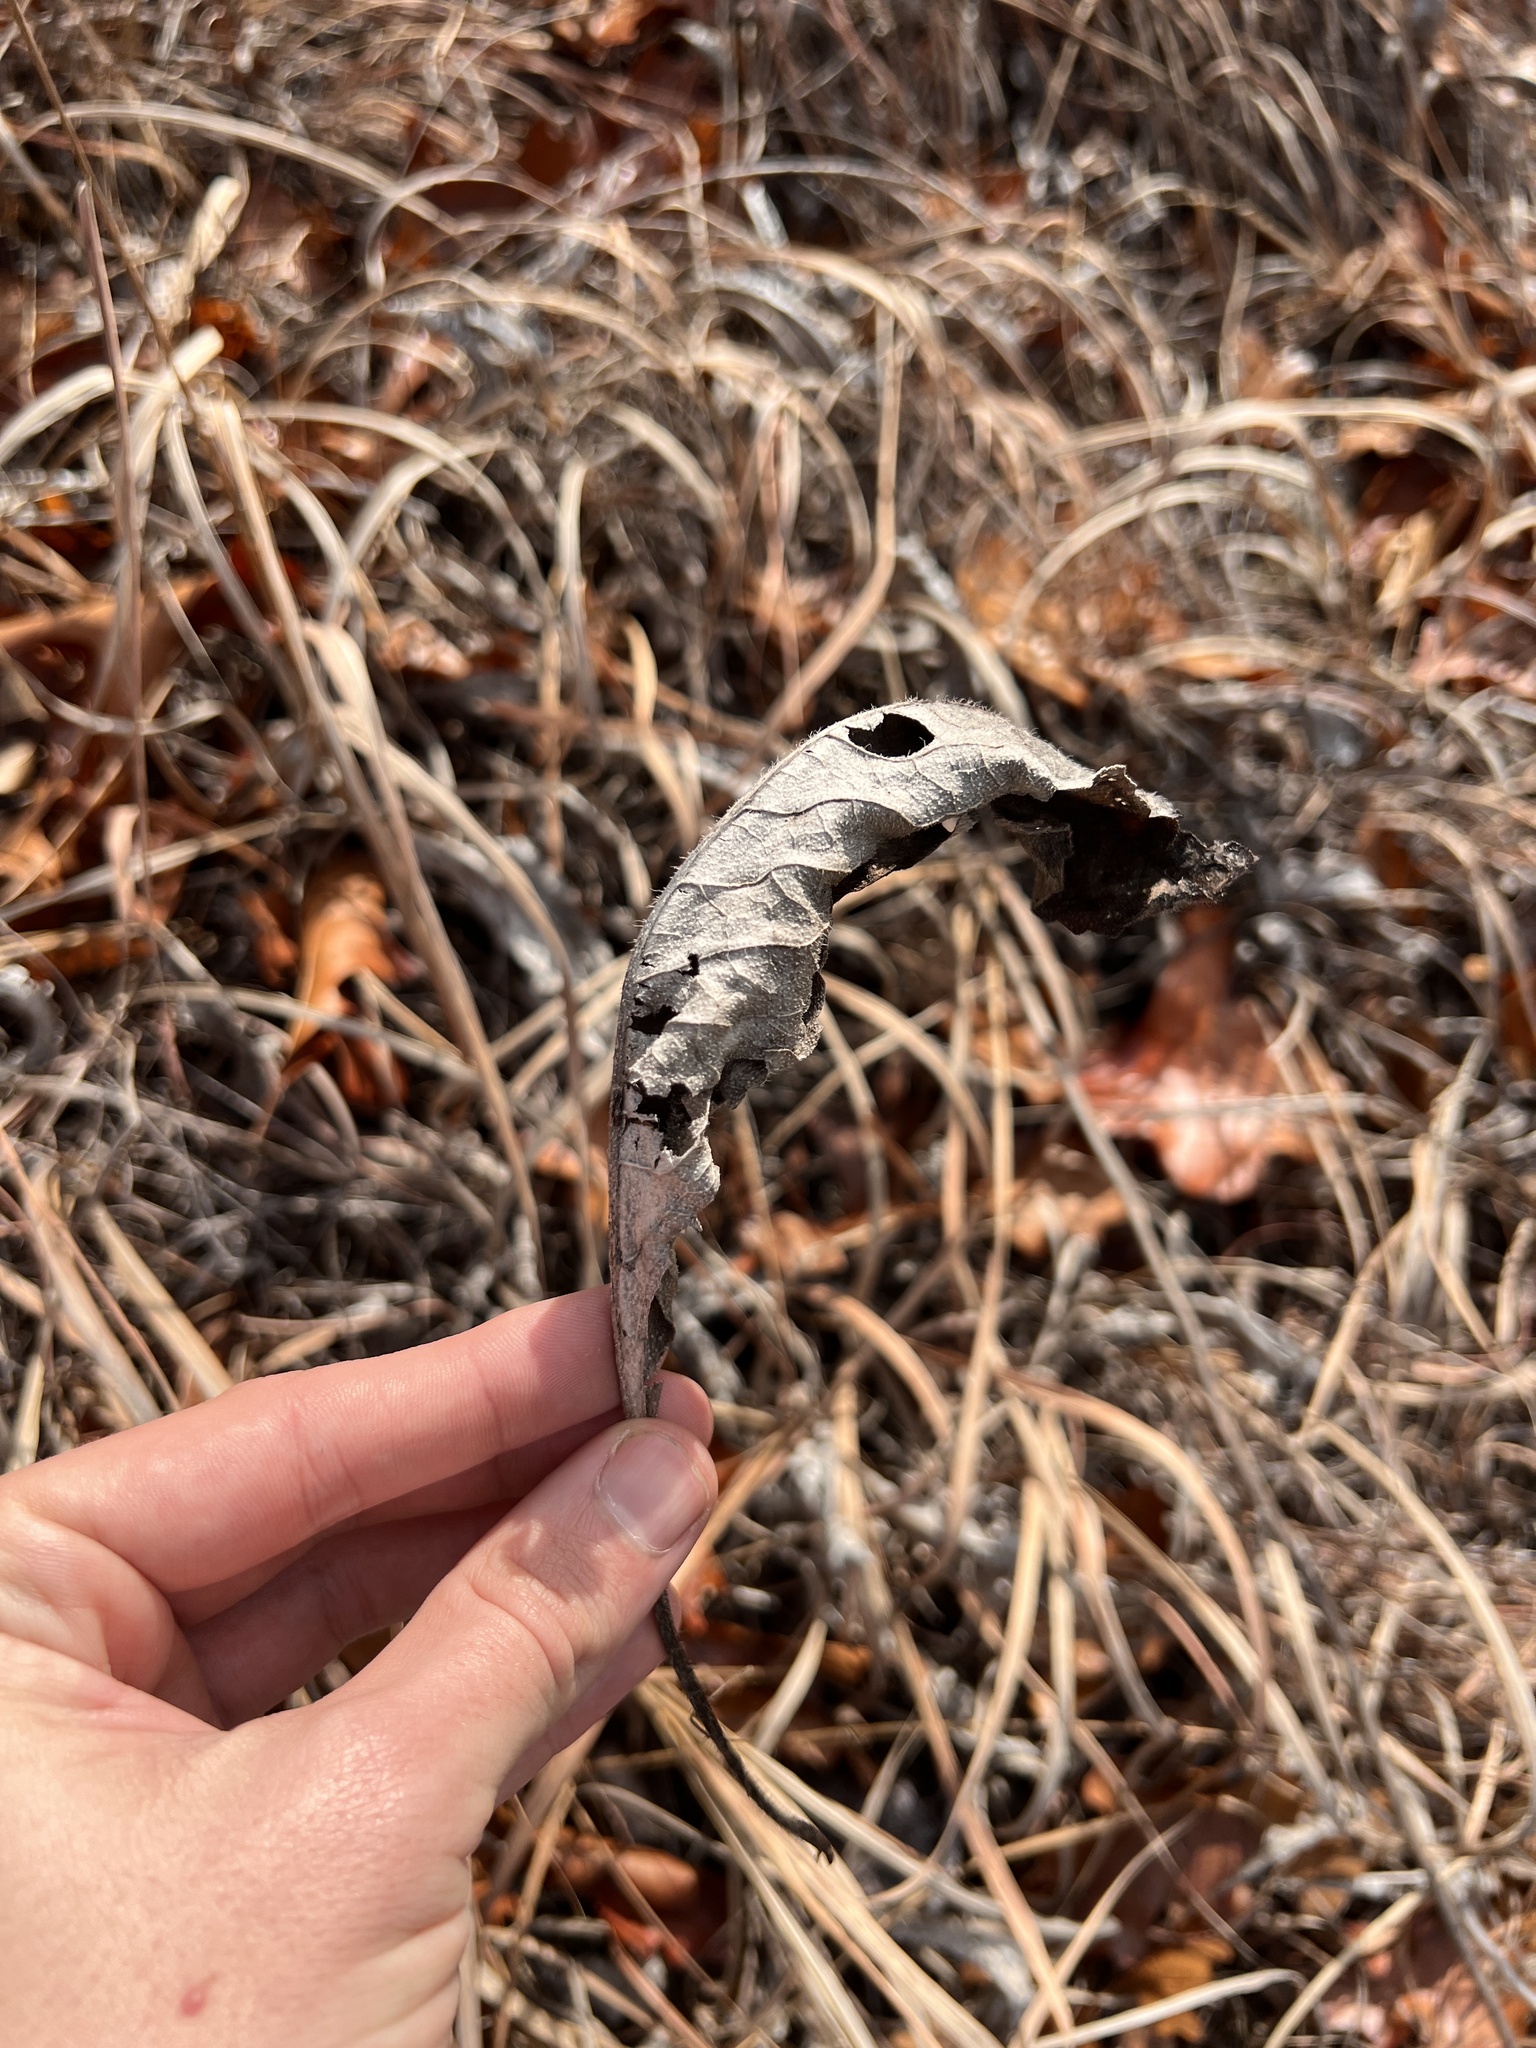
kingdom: Plantae
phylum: Tracheophyta
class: Magnoliopsida
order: Asterales
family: Asteraceae
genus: Parthenium
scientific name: Parthenium hispidum
